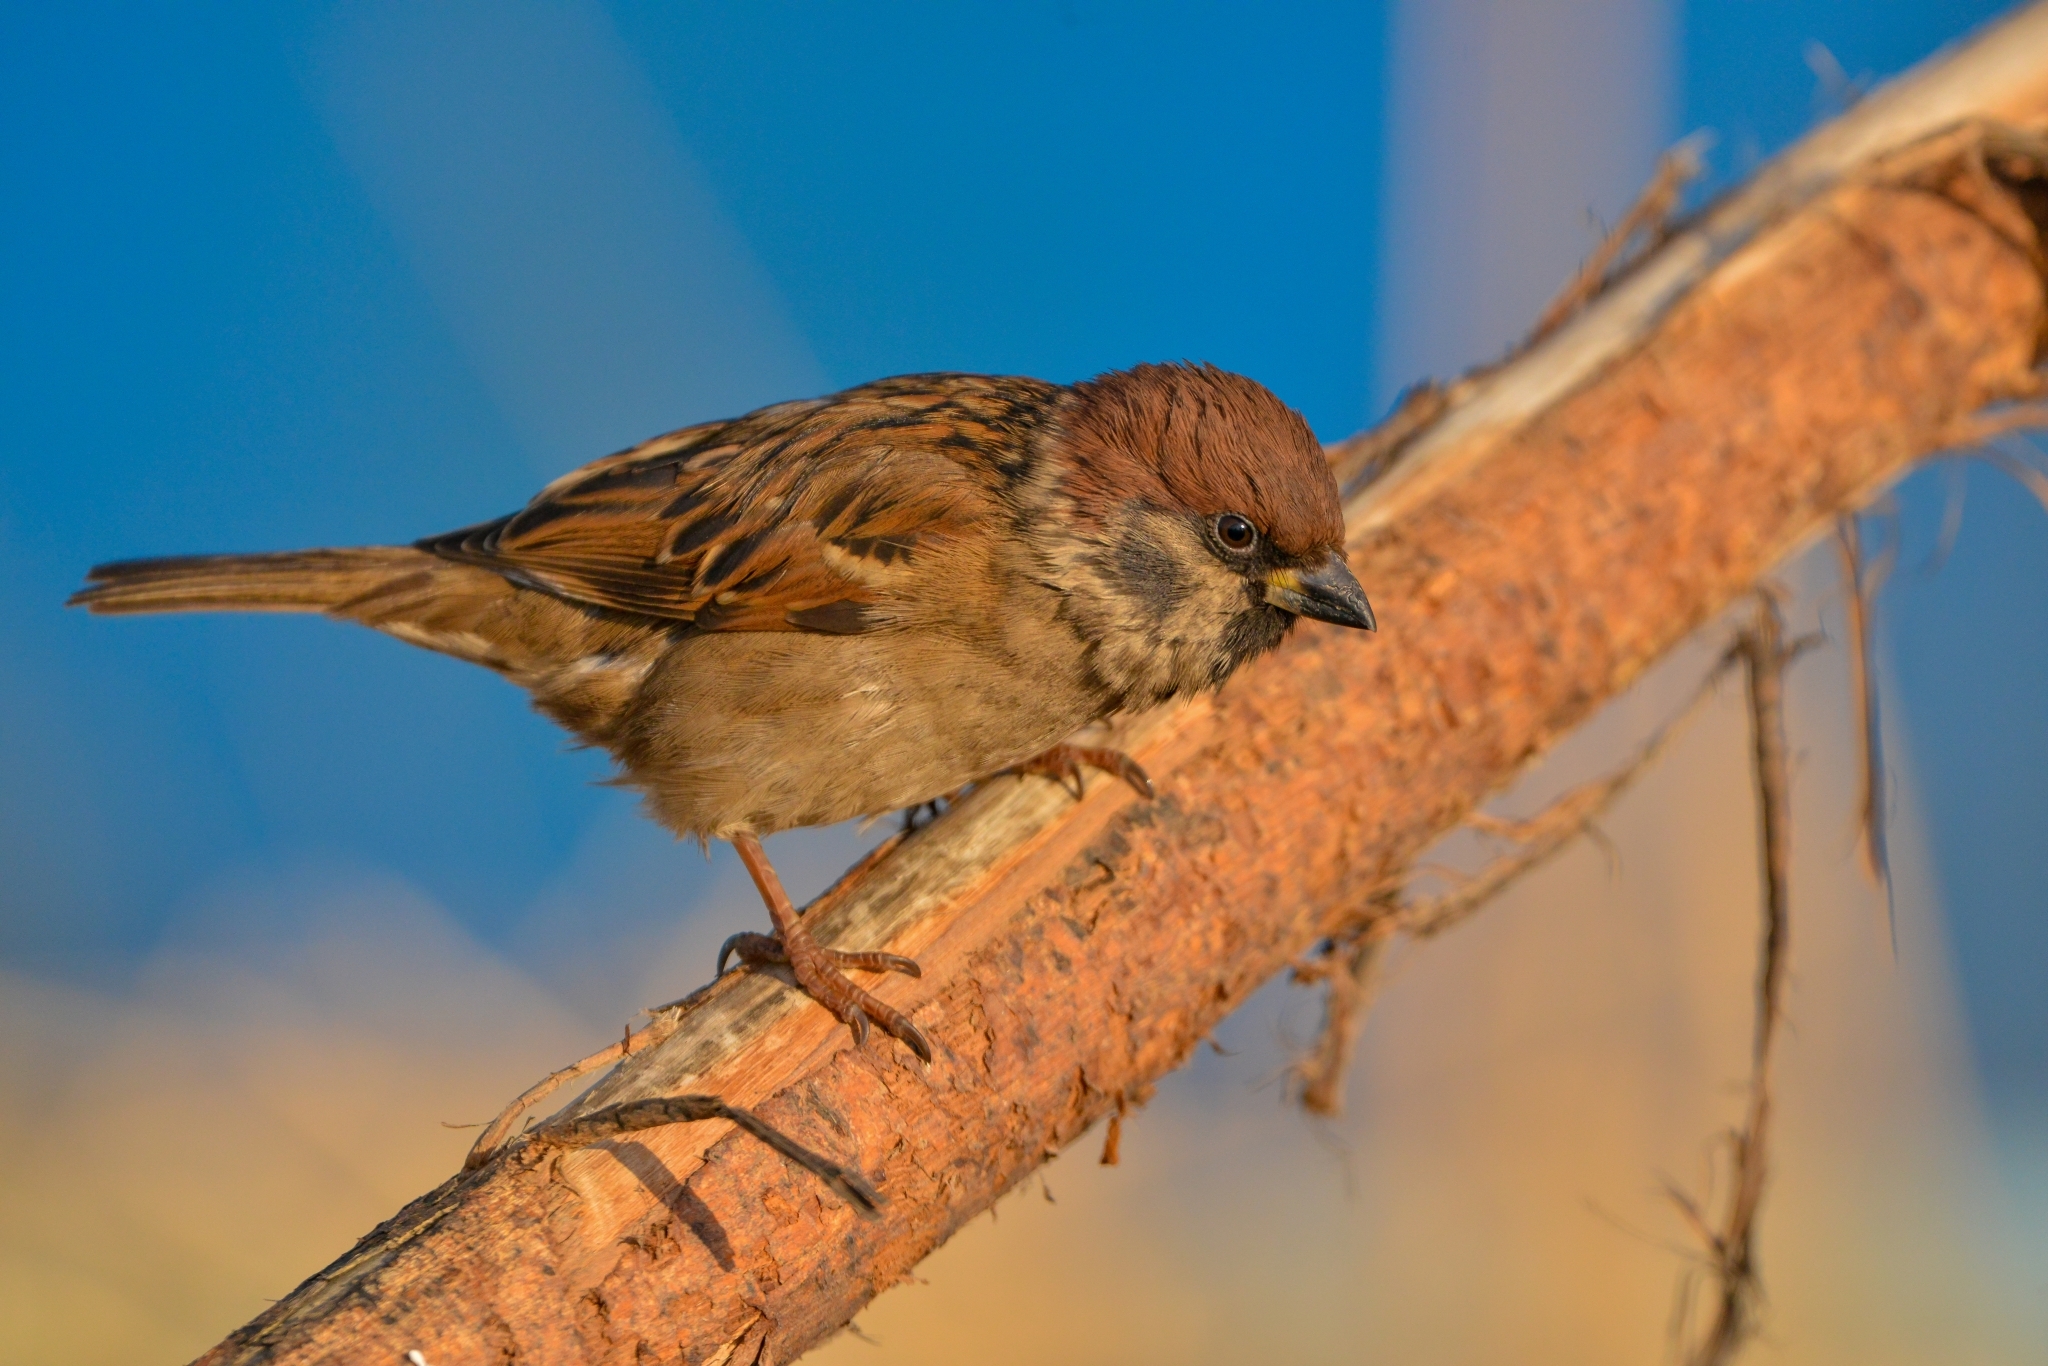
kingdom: Animalia
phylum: Chordata
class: Aves
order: Passeriformes
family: Passeridae
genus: Passer
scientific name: Passer montanus
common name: Eurasian tree sparrow
